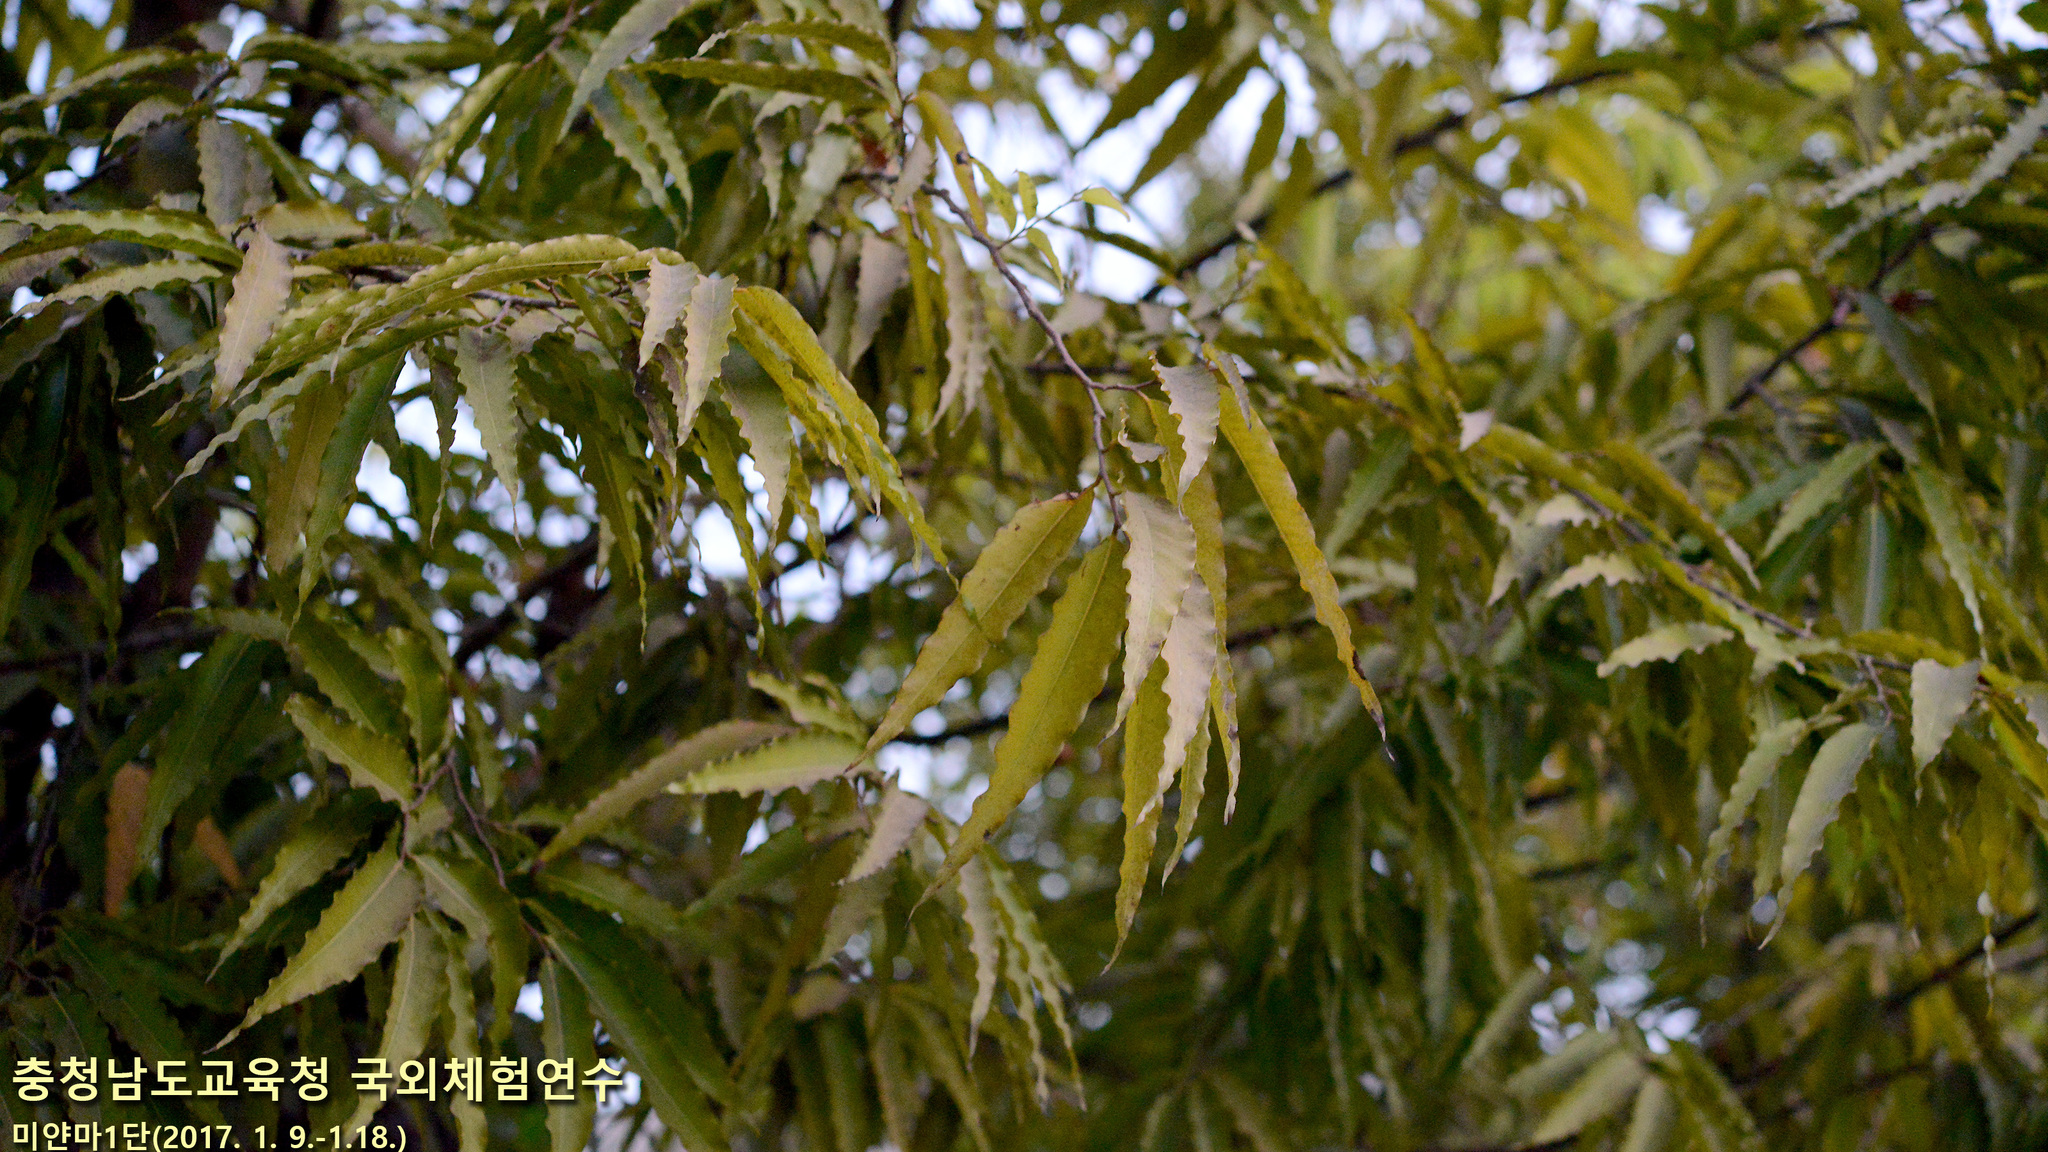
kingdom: Plantae
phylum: Tracheophyta
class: Magnoliopsida
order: Magnoliales
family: Annonaceae
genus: Polyalthia
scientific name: Polyalthia longifolia
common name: Cemetery-tree
